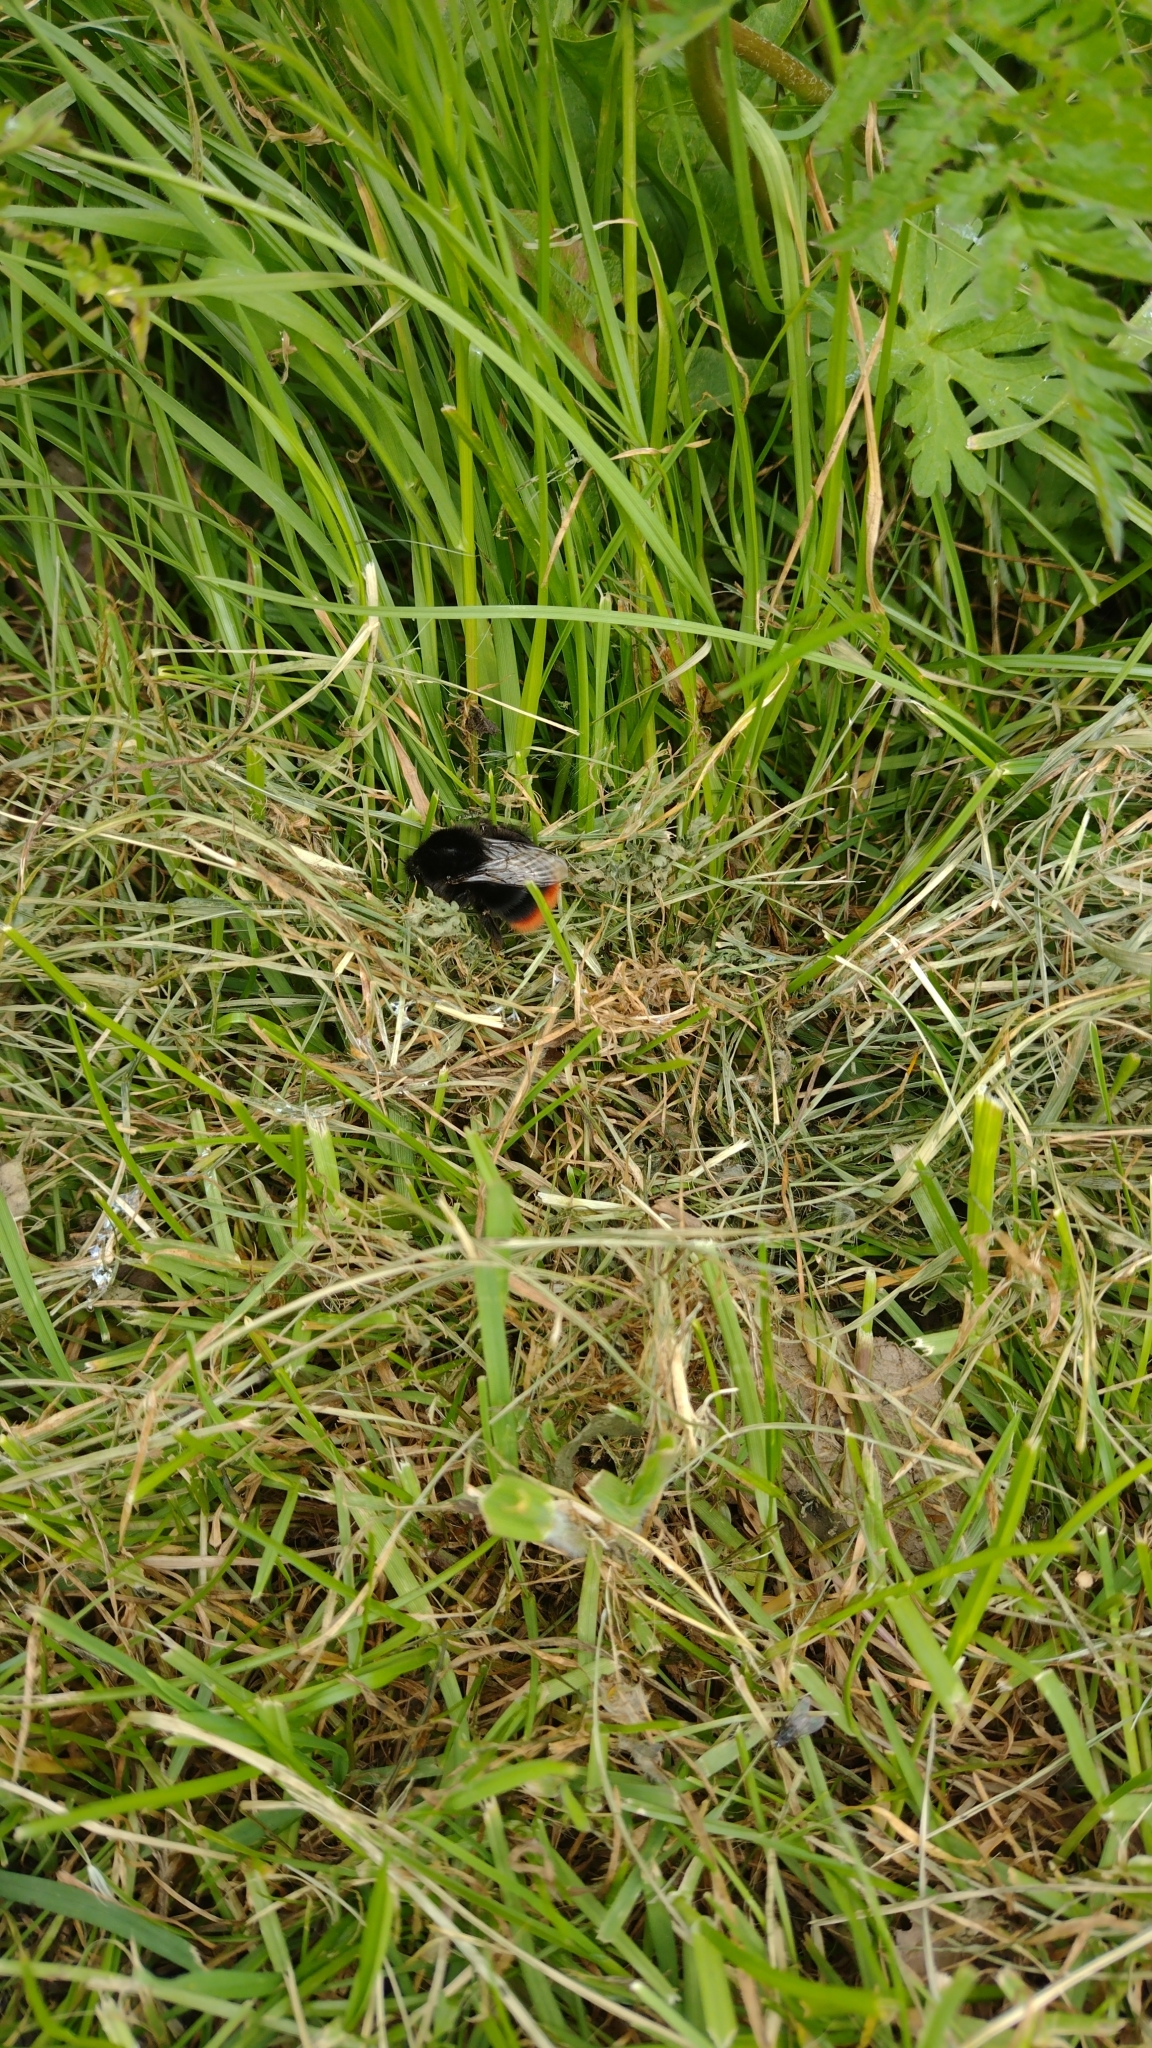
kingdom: Animalia
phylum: Arthropoda
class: Insecta
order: Hymenoptera
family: Apidae
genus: Bombus
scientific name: Bombus lapidarius
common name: Large red-tailed humble-bee
